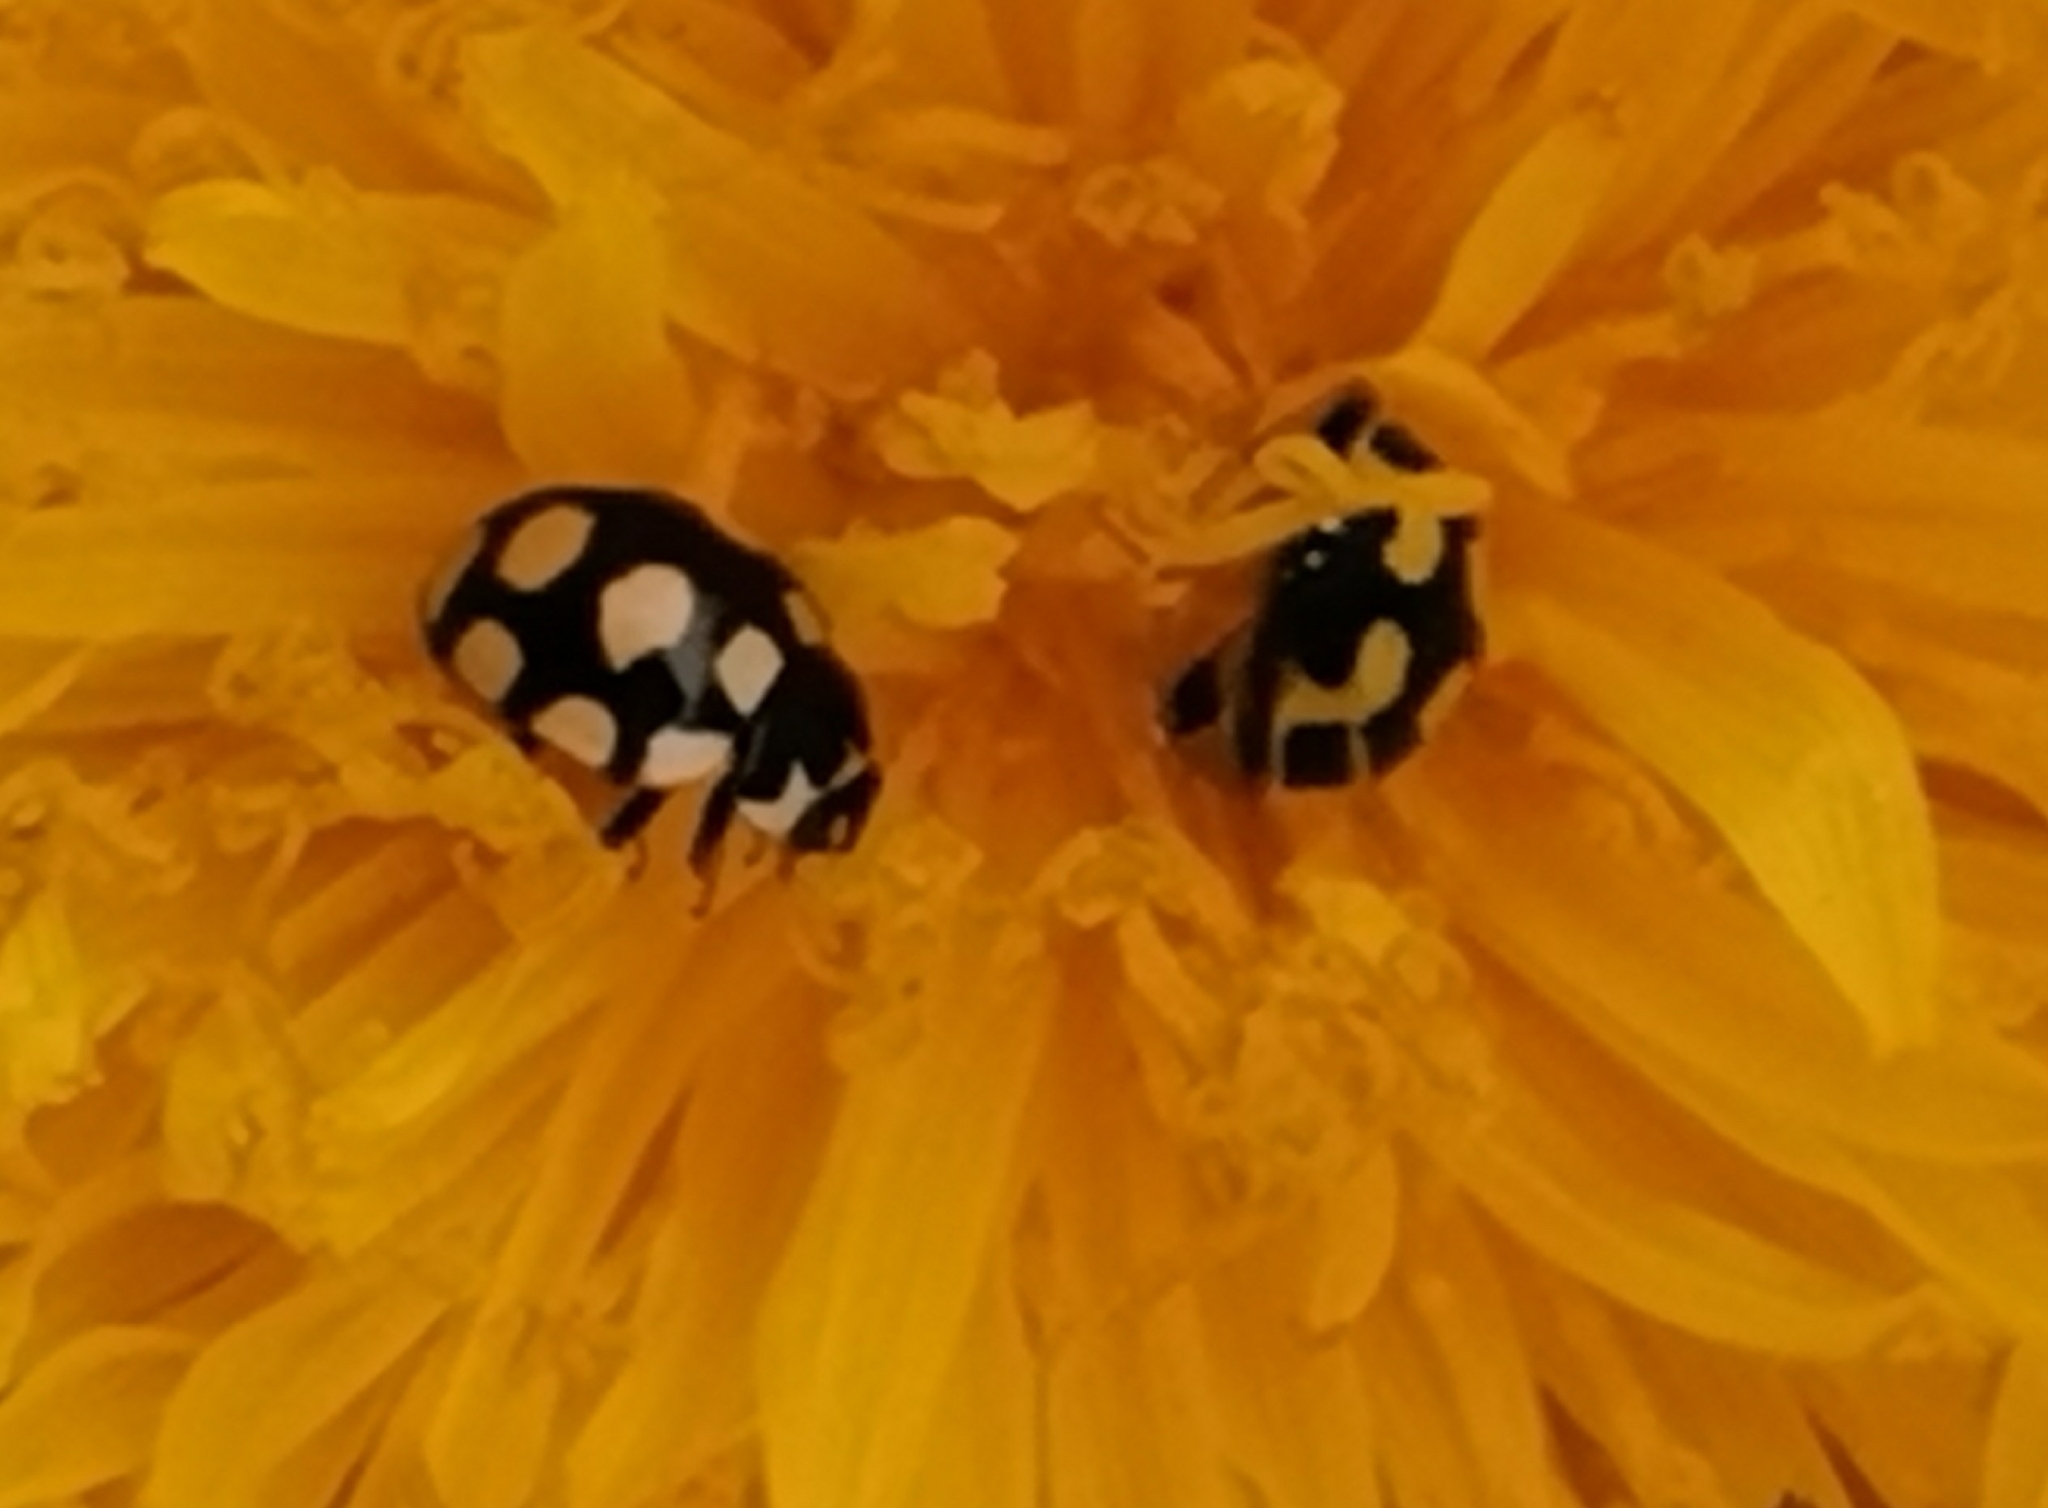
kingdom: Animalia
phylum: Arthropoda
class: Insecta
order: Coleoptera
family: Coccinellidae
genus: Coccinula
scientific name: Coccinula quatuordecimpustulata
